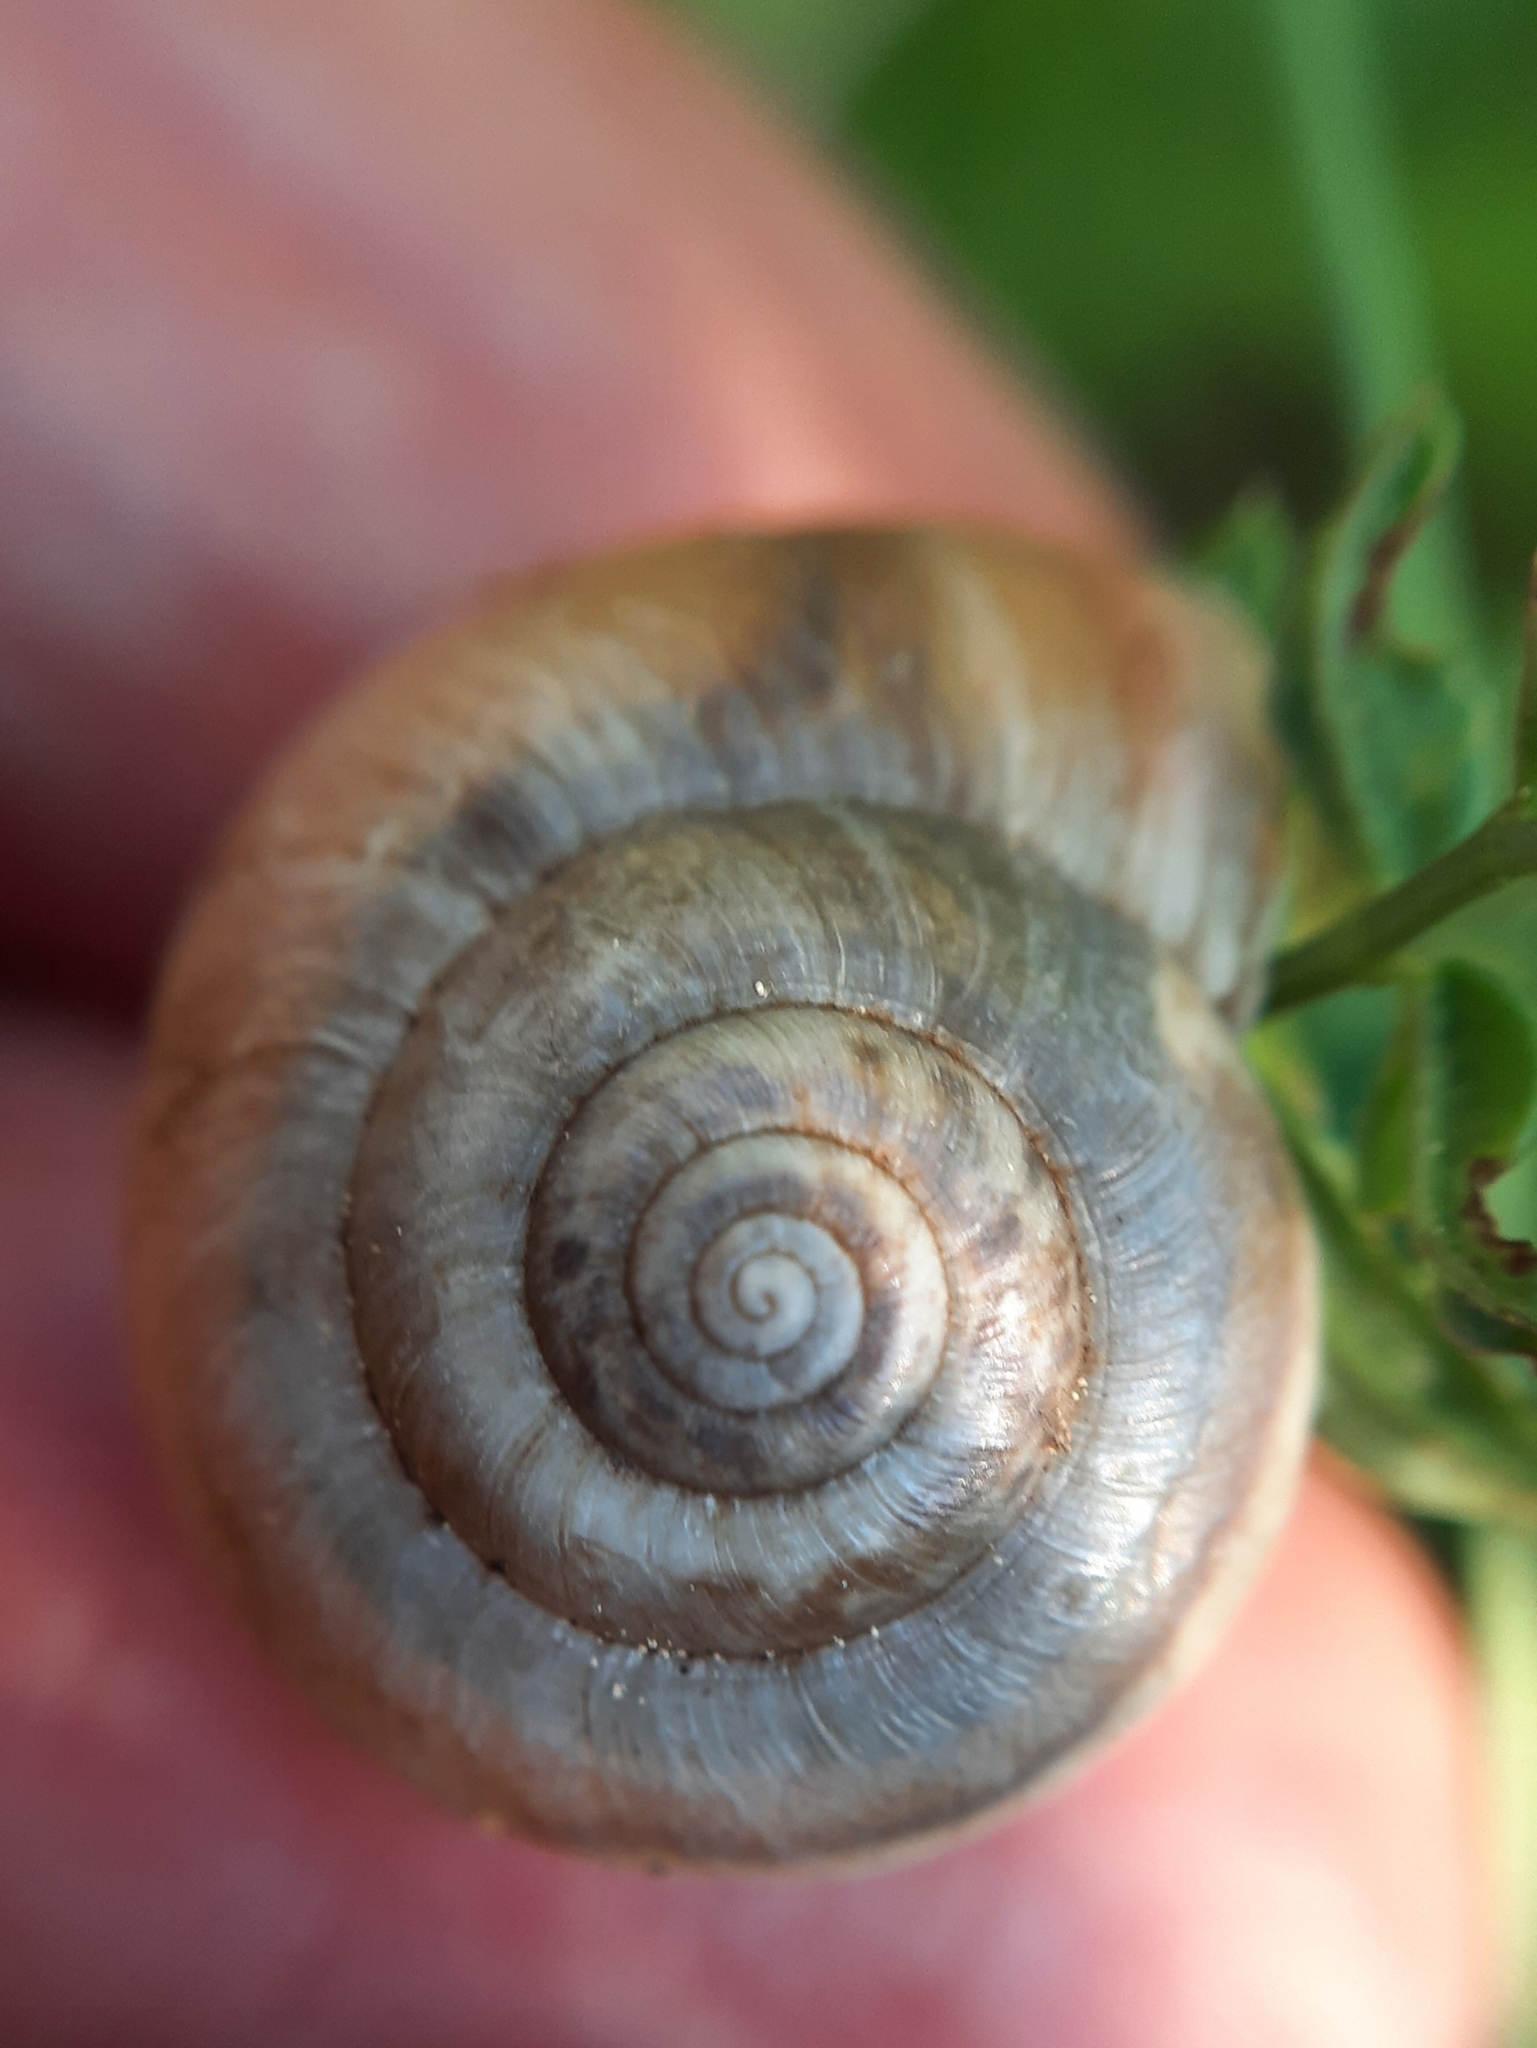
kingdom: Animalia
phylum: Mollusca
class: Gastropoda
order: Stylommatophora
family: Hygromiidae
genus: Monacha
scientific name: Monacha cantiana
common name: Kentish snail
